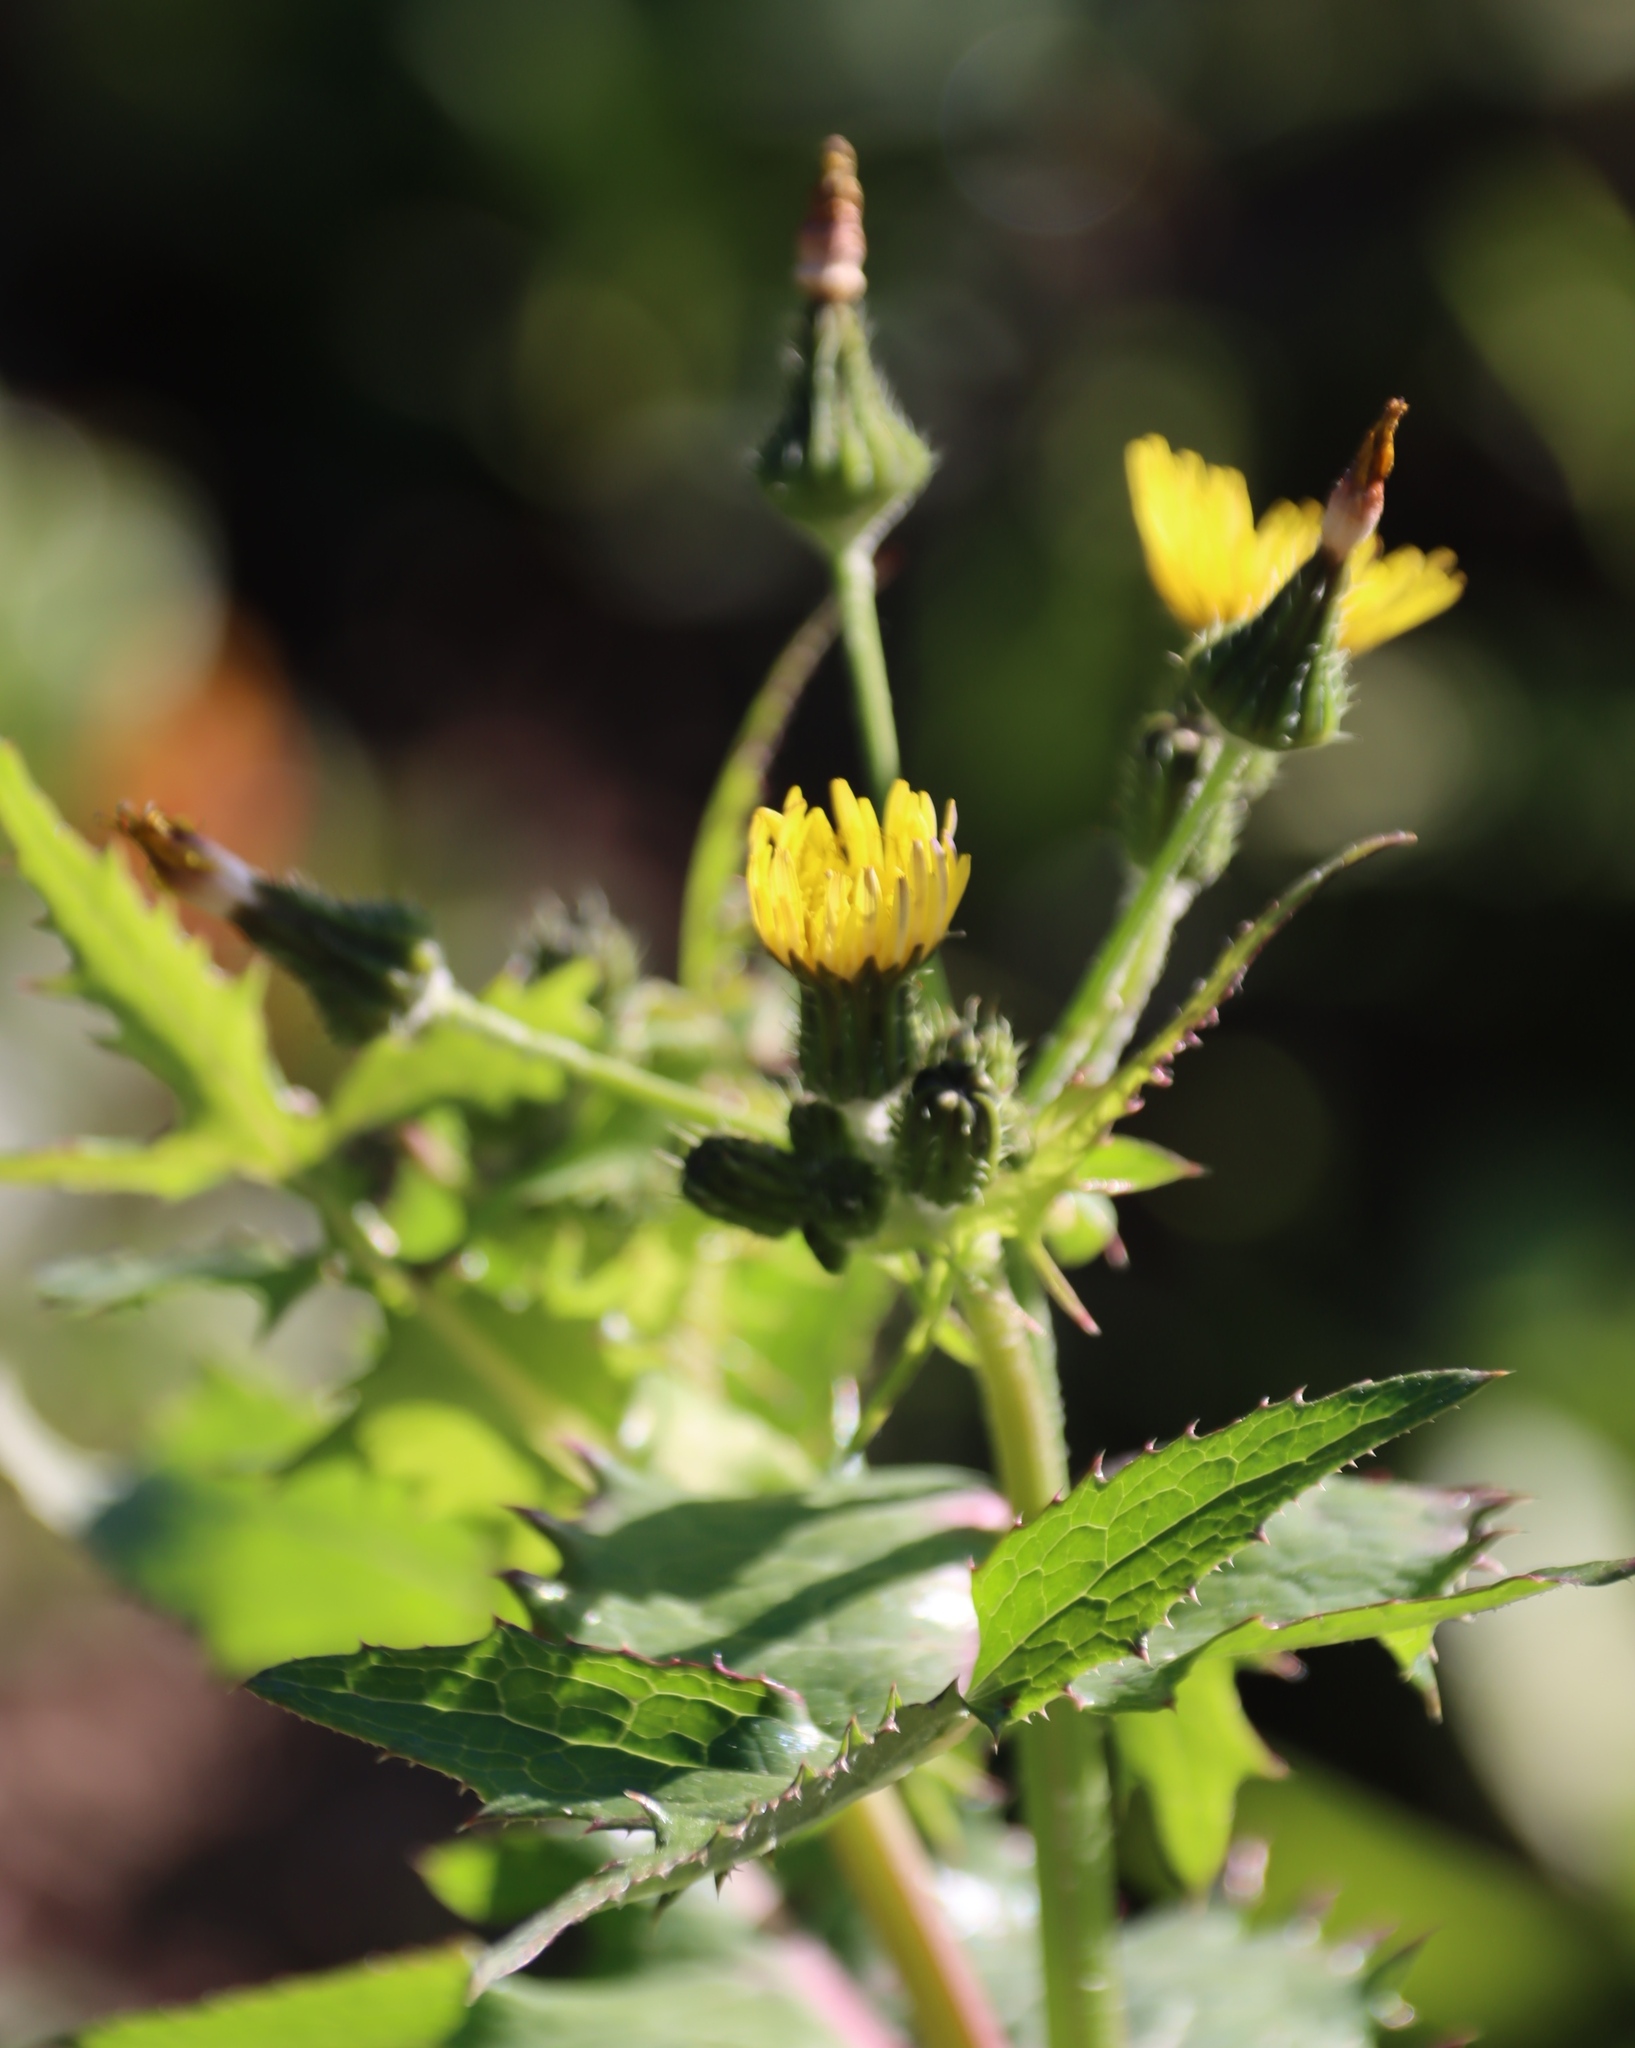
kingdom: Plantae
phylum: Tracheophyta
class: Magnoliopsida
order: Asterales
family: Asteraceae
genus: Sonchus
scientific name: Sonchus asper
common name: Prickly sow-thistle
